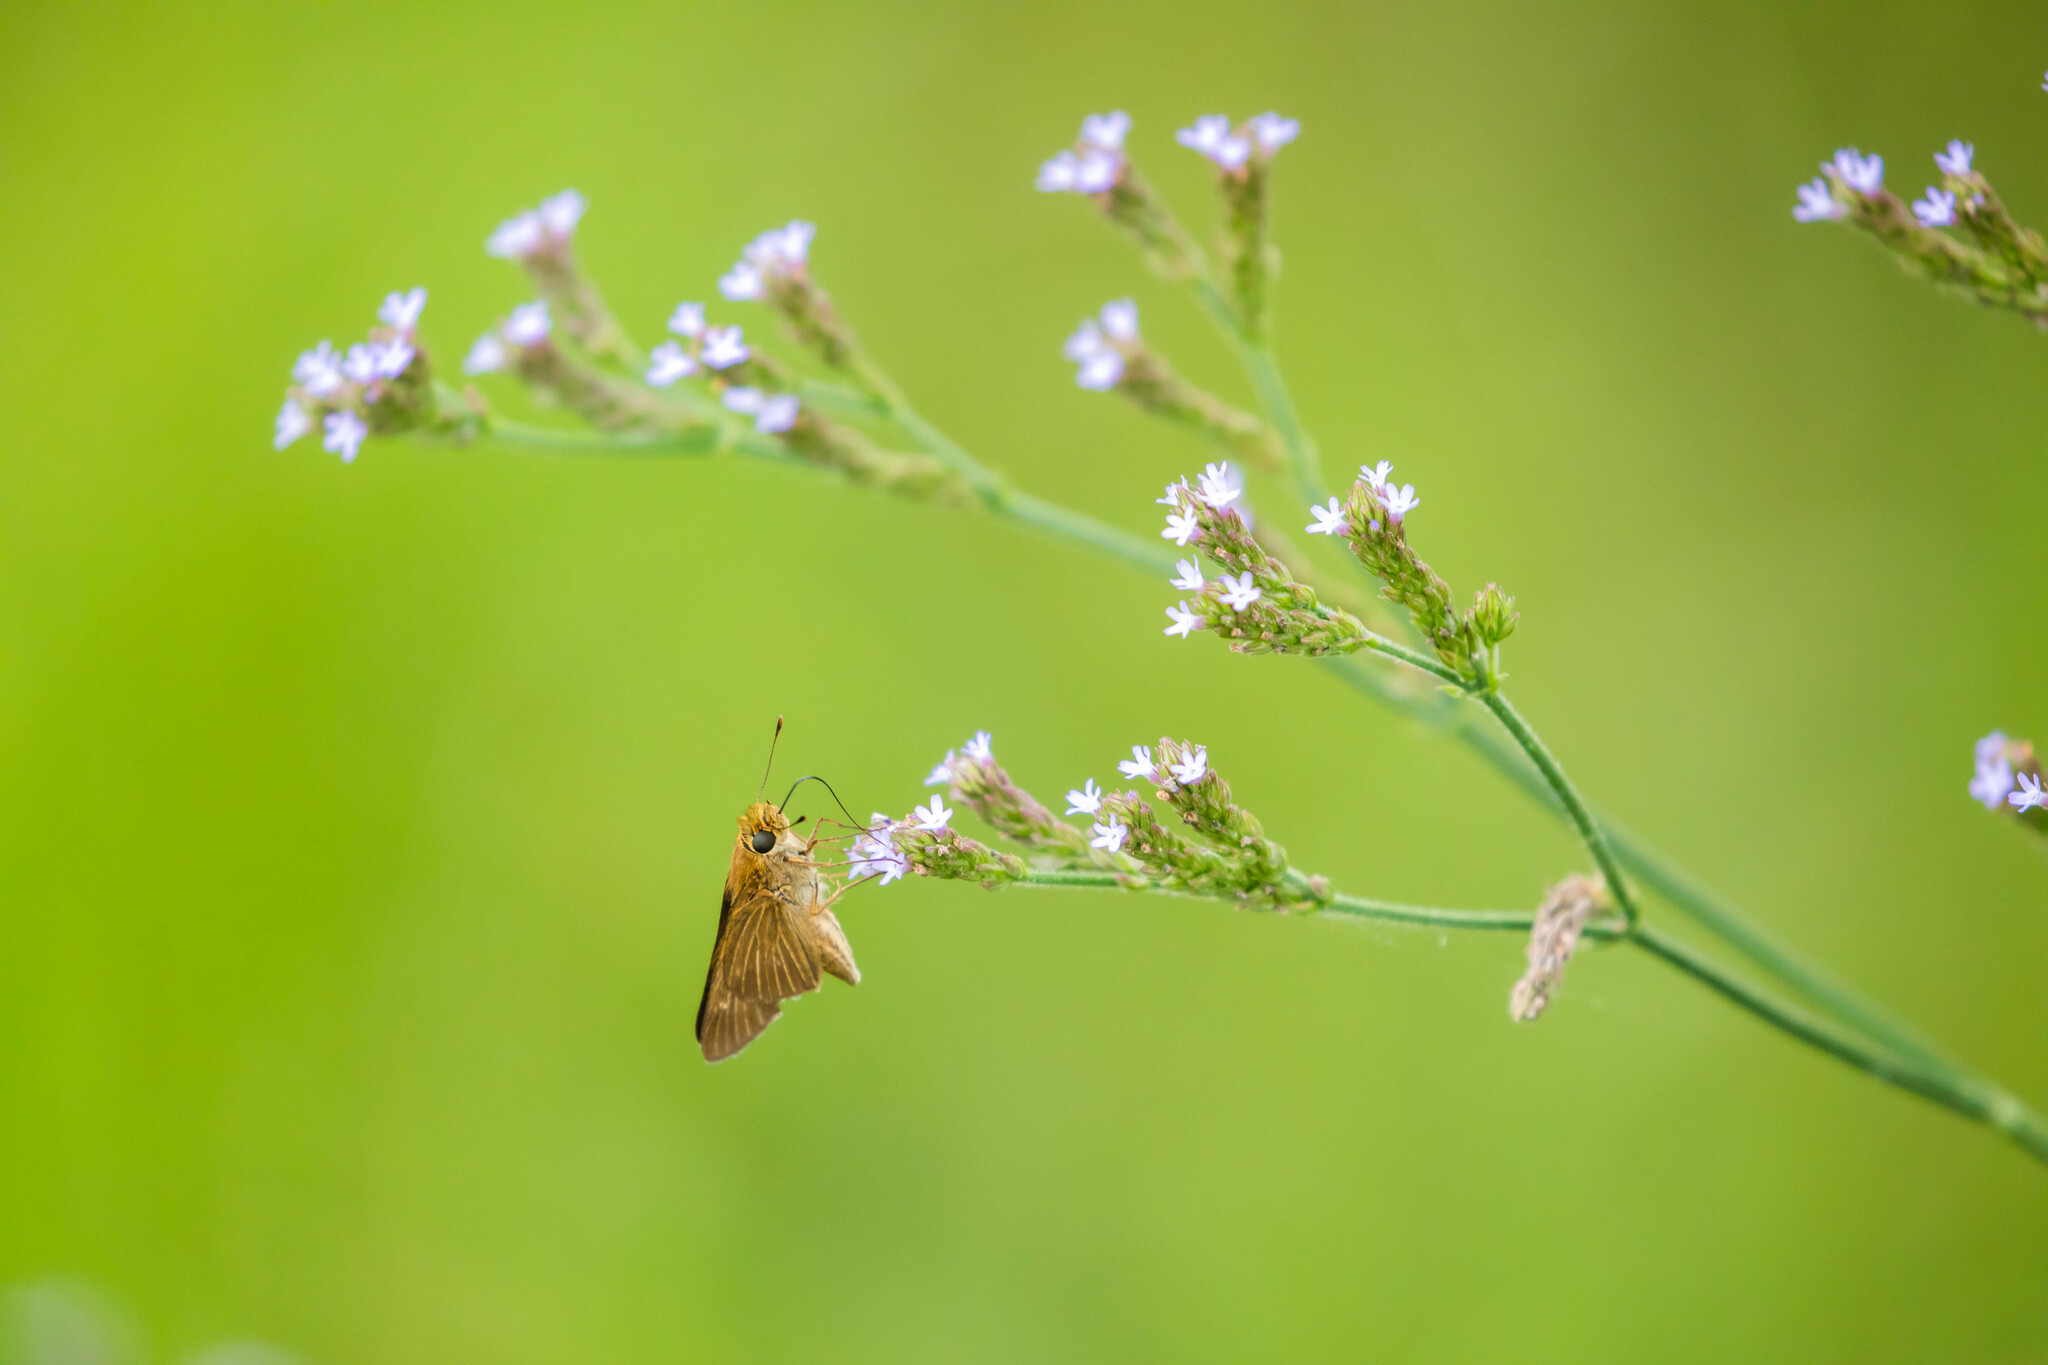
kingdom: Animalia
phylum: Arthropoda
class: Insecta
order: Lepidoptera
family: Hesperiidae
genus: Panoquina
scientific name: Panoquina ocola
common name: Ocola skipper
